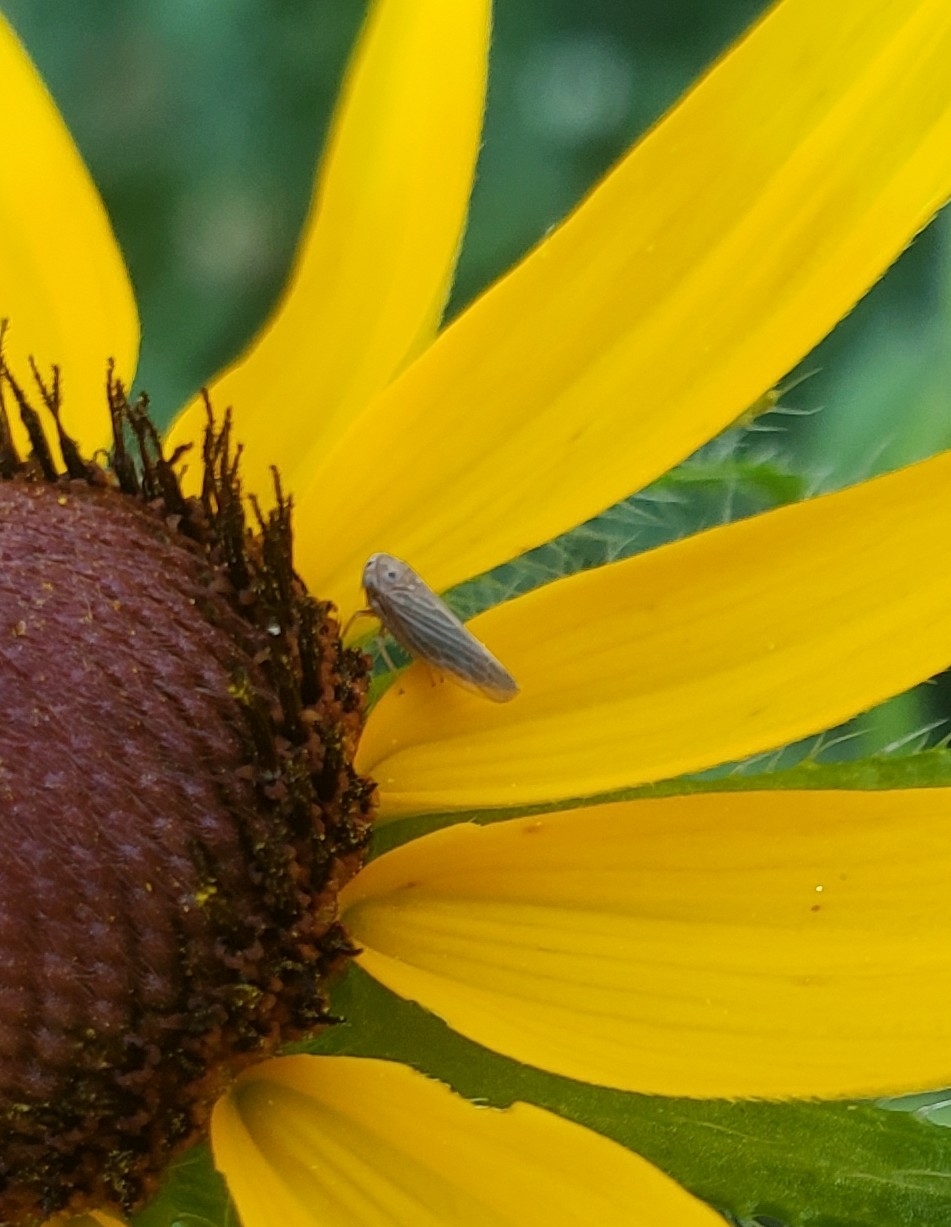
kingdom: Animalia
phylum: Arthropoda
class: Insecta
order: Hemiptera
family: Cicadellidae
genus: Agallia
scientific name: Agallia constricta
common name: The constricted leafhopper
